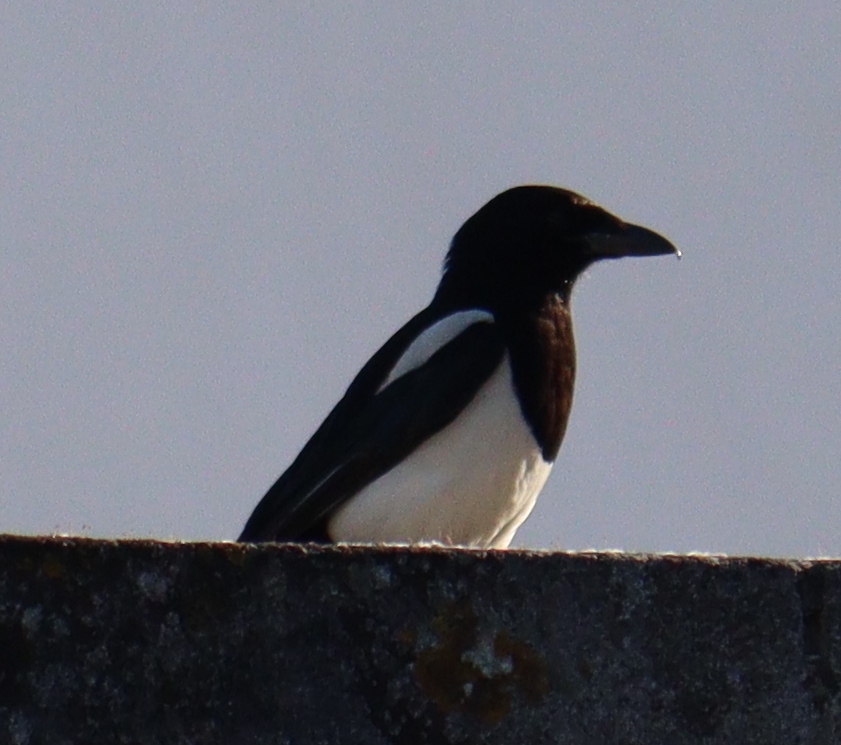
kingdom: Animalia
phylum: Chordata
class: Aves
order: Passeriformes
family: Corvidae
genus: Pica
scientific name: Pica pica
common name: Eurasian magpie
